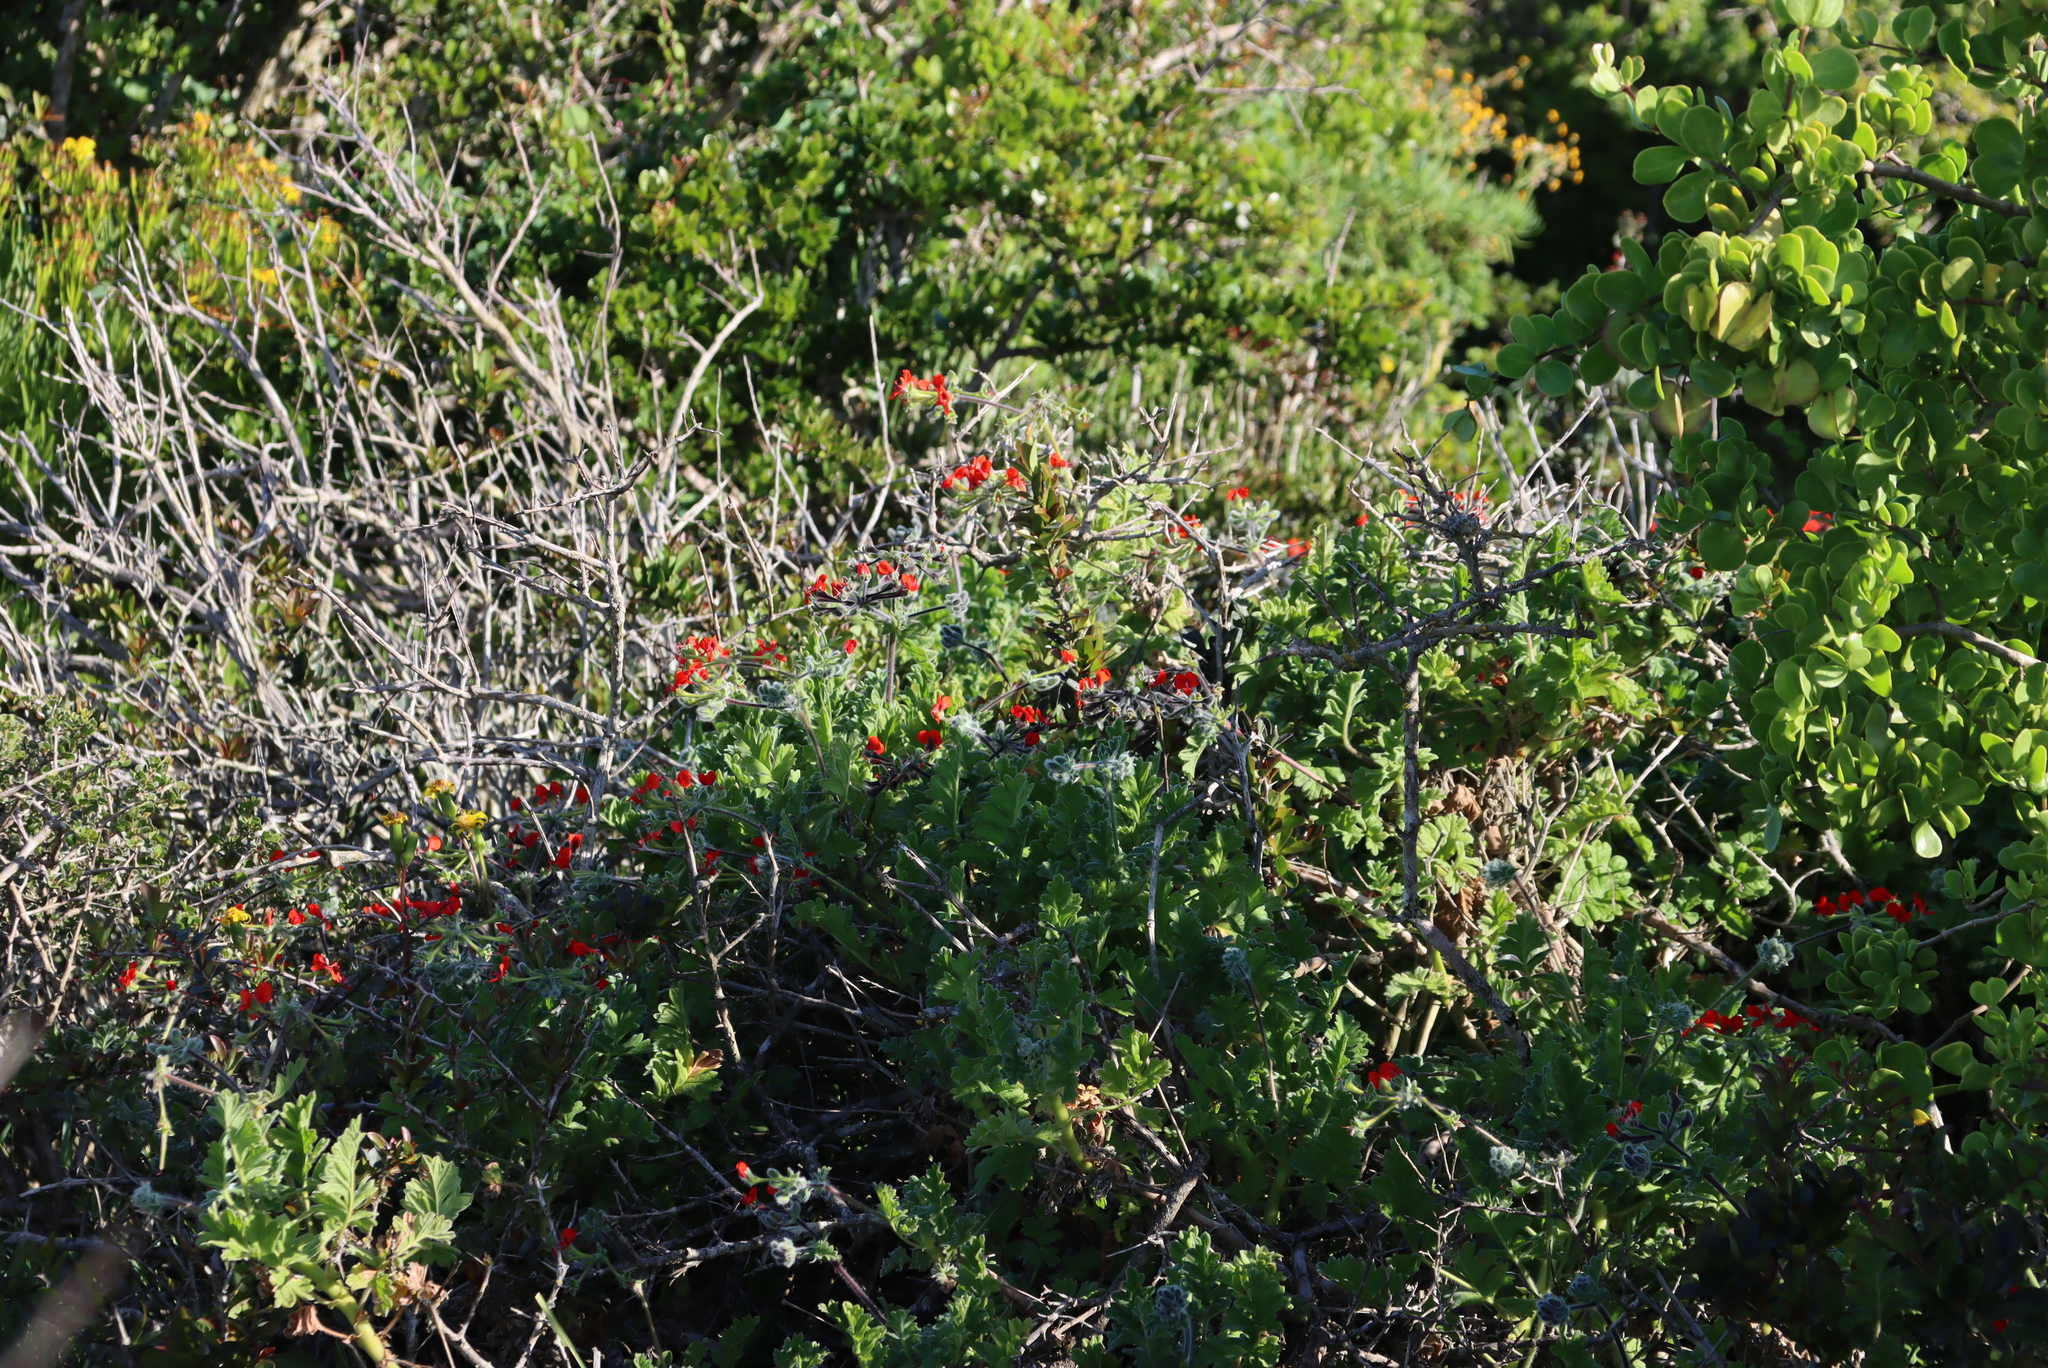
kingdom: Plantae
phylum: Tracheophyta
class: Magnoliopsida
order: Geraniales
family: Geraniaceae
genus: Pelargonium
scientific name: Pelargonium fulgidum
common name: Celandine-leaf pelargonium
